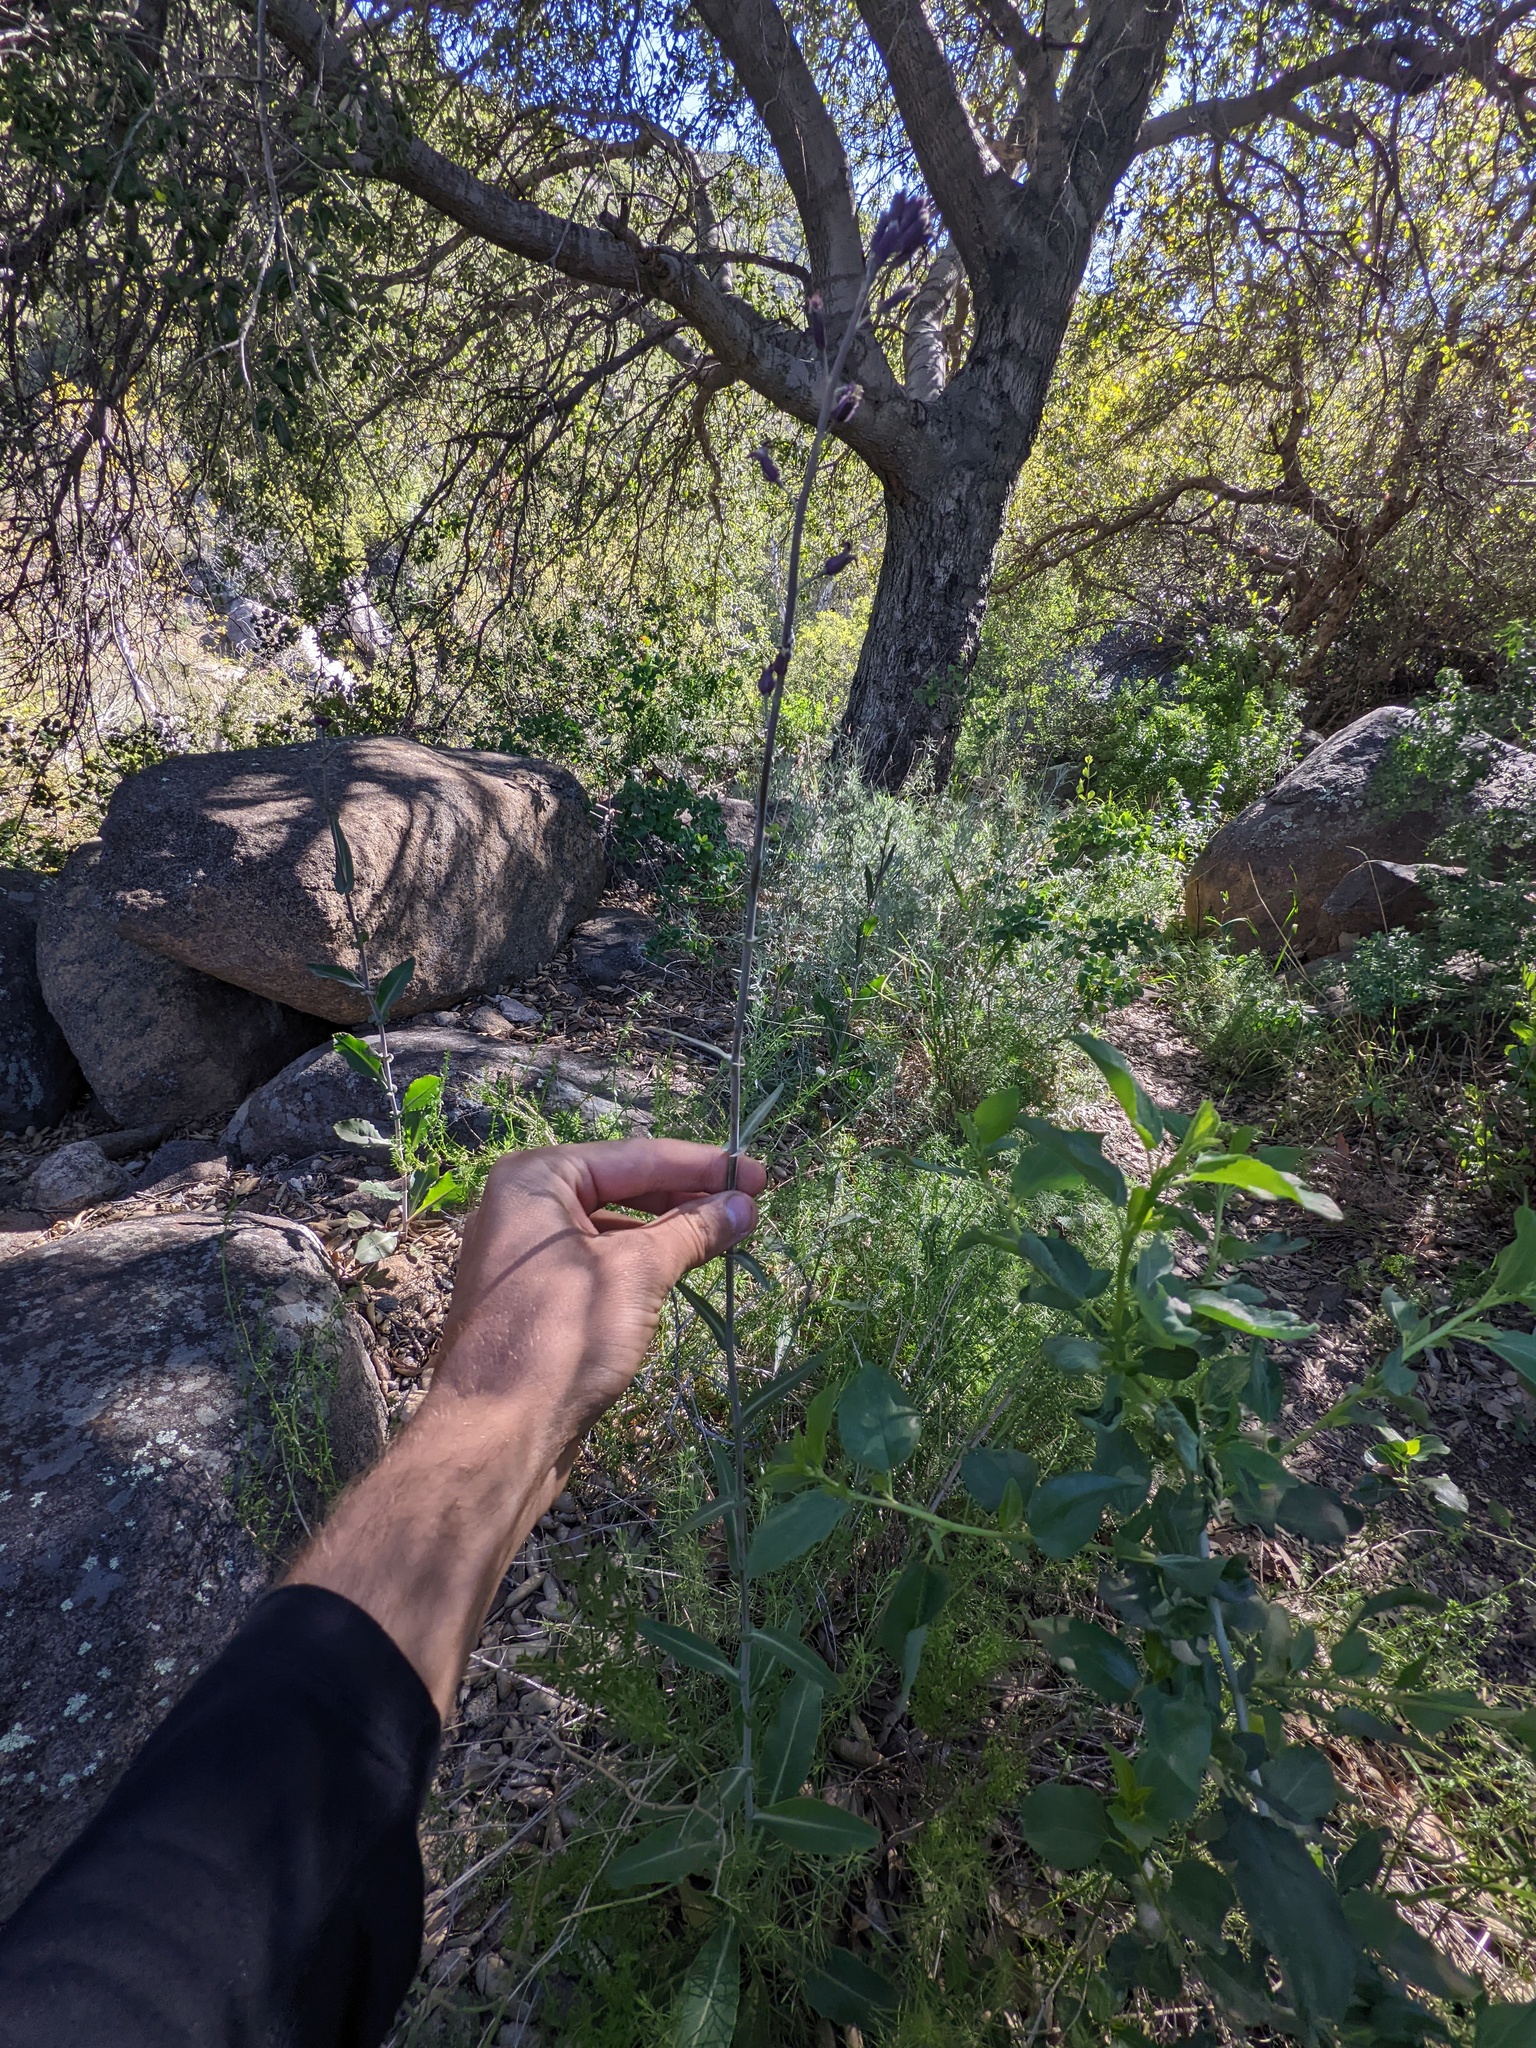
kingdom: Plantae
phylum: Tracheophyta
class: Magnoliopsida
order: Brassicales
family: Brassicaceae
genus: Streptanthus
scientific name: Streptanthus campestris
